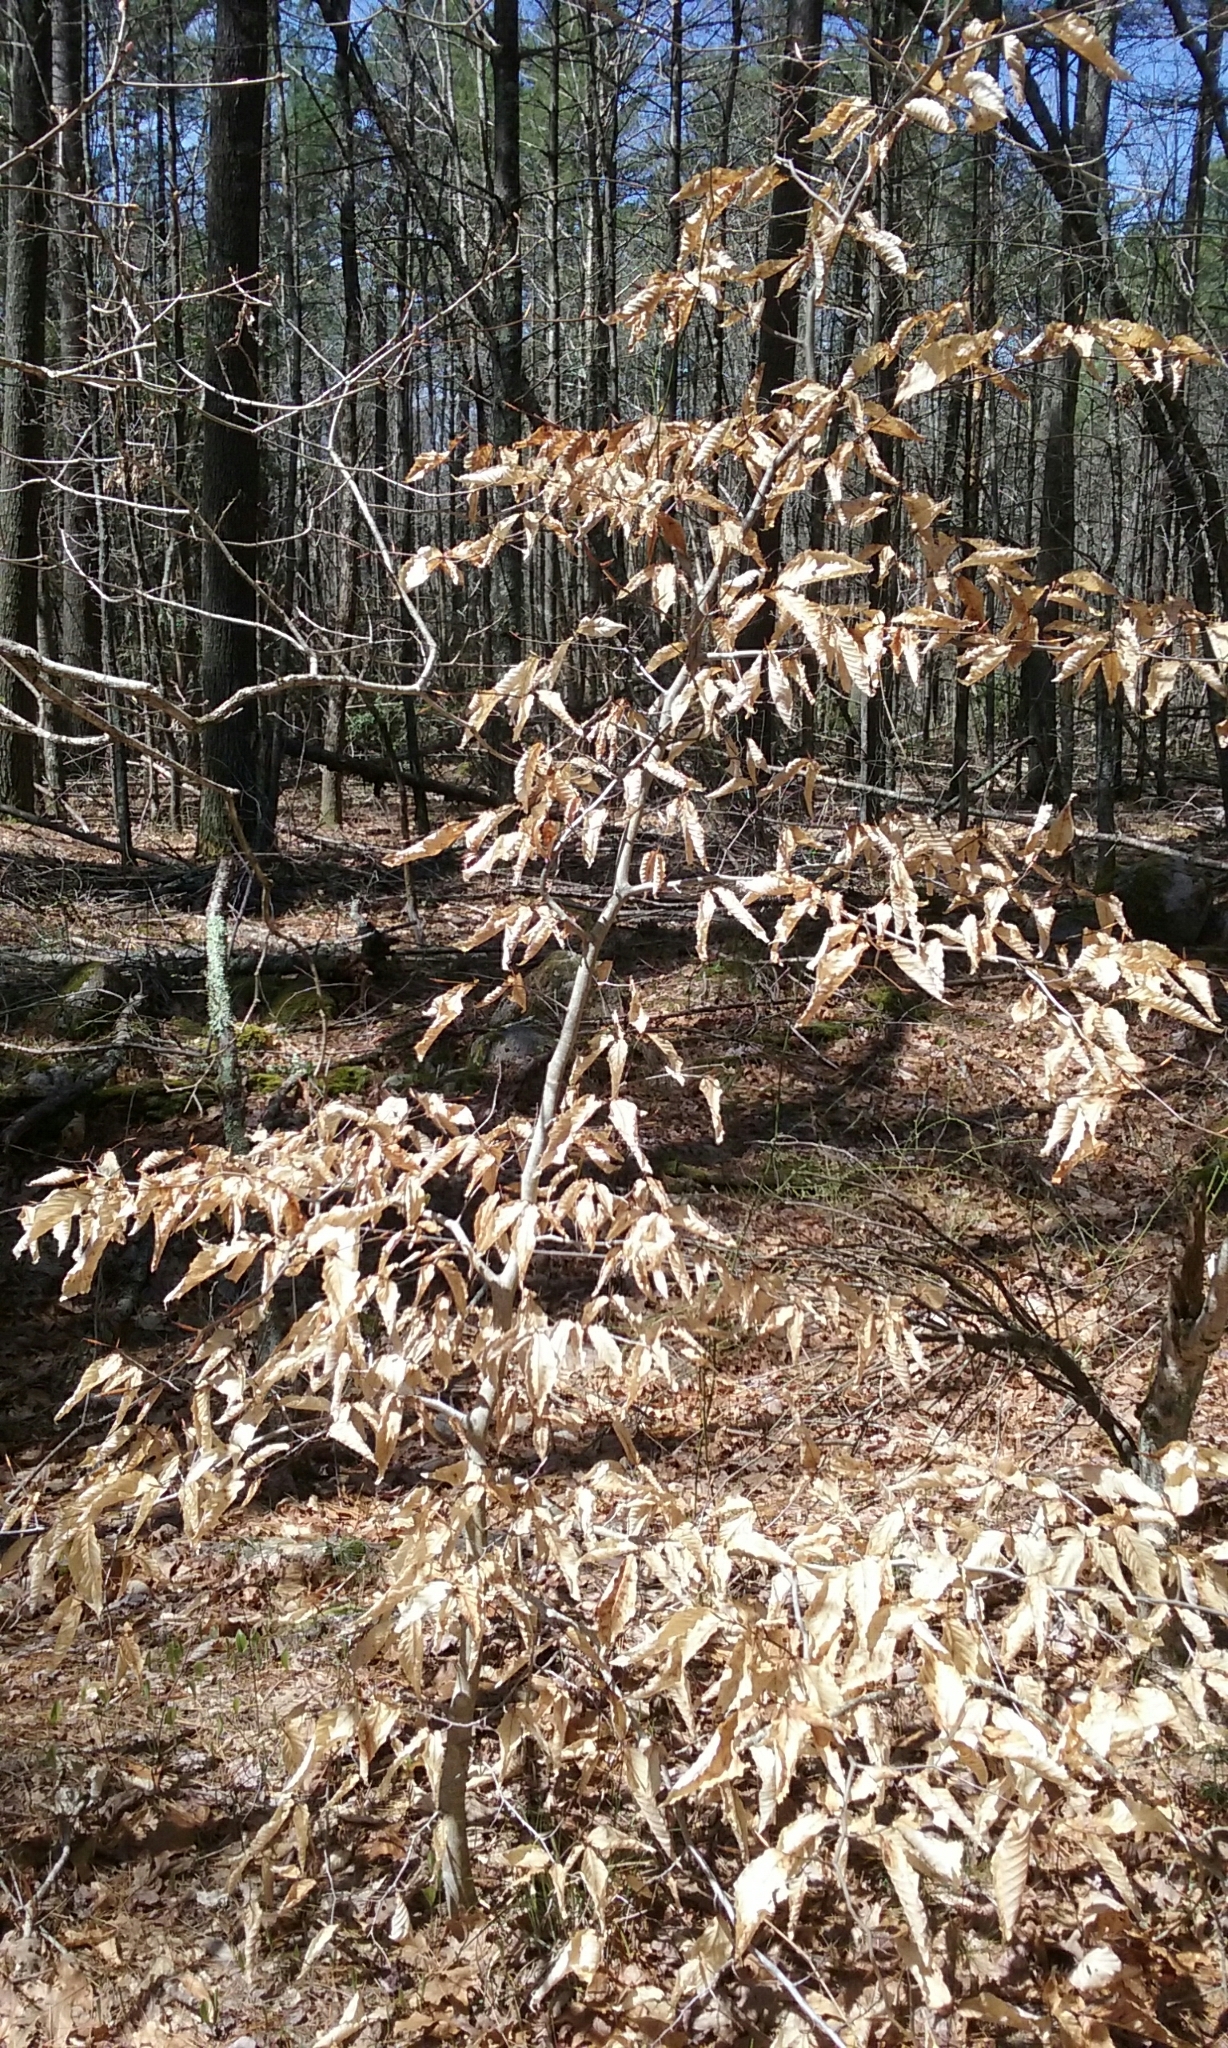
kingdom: Plantae
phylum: Tracheophyta
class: Magnoliopsida
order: Fagales
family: Fagaceae
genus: Fagus
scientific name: Fagus grandifolia
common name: American beech
